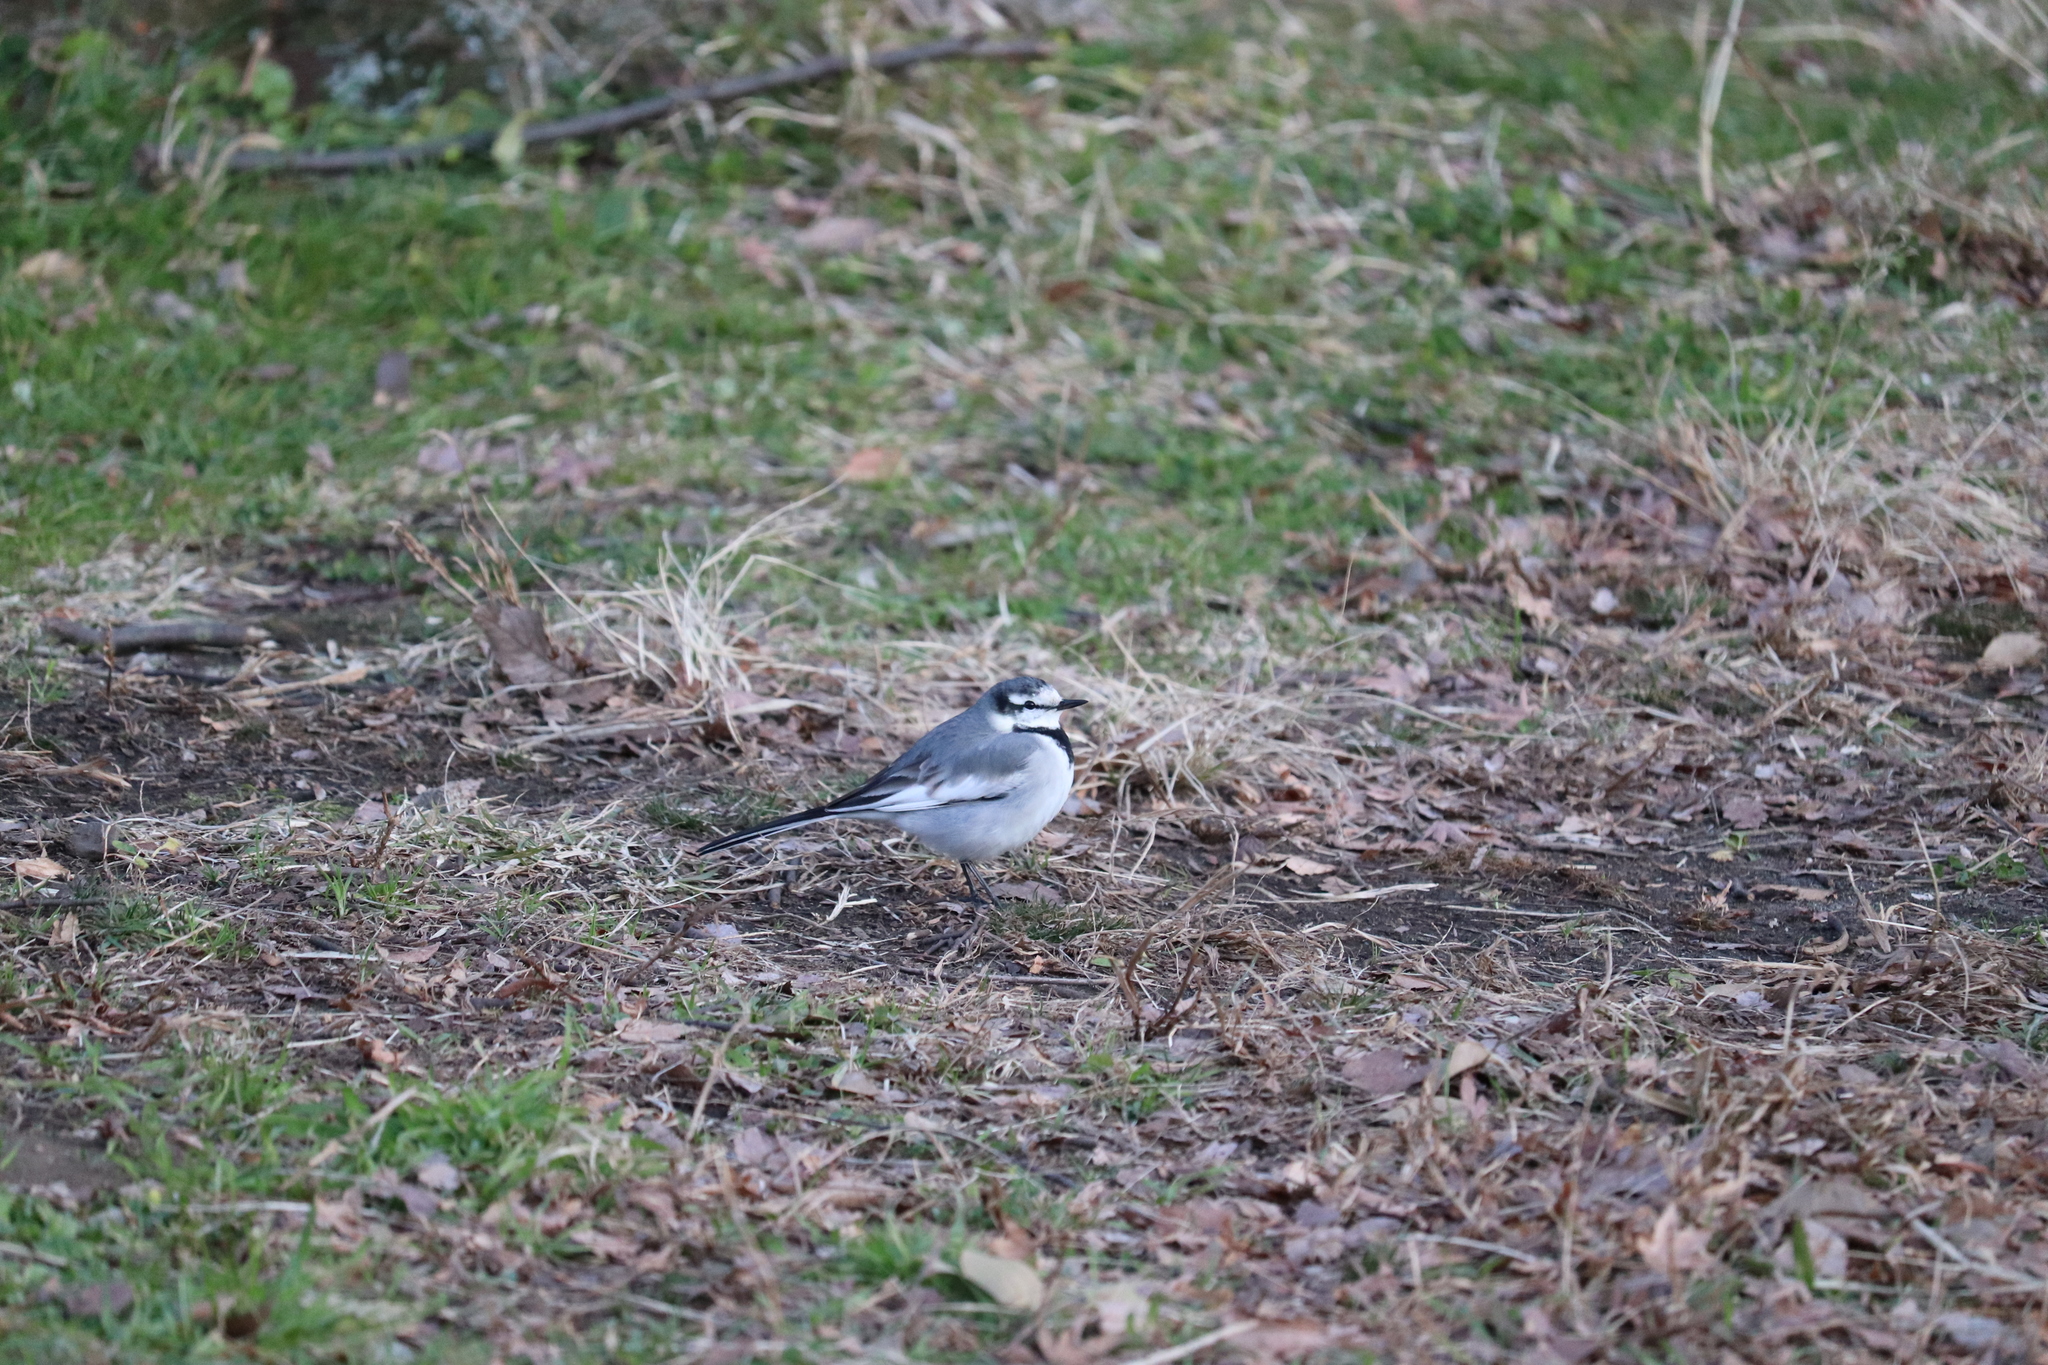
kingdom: Animalia
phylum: Chordata
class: Aves
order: Passeriformes
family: Motacillidae
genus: Motacilla
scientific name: Motacilla alba
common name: White wagtail
